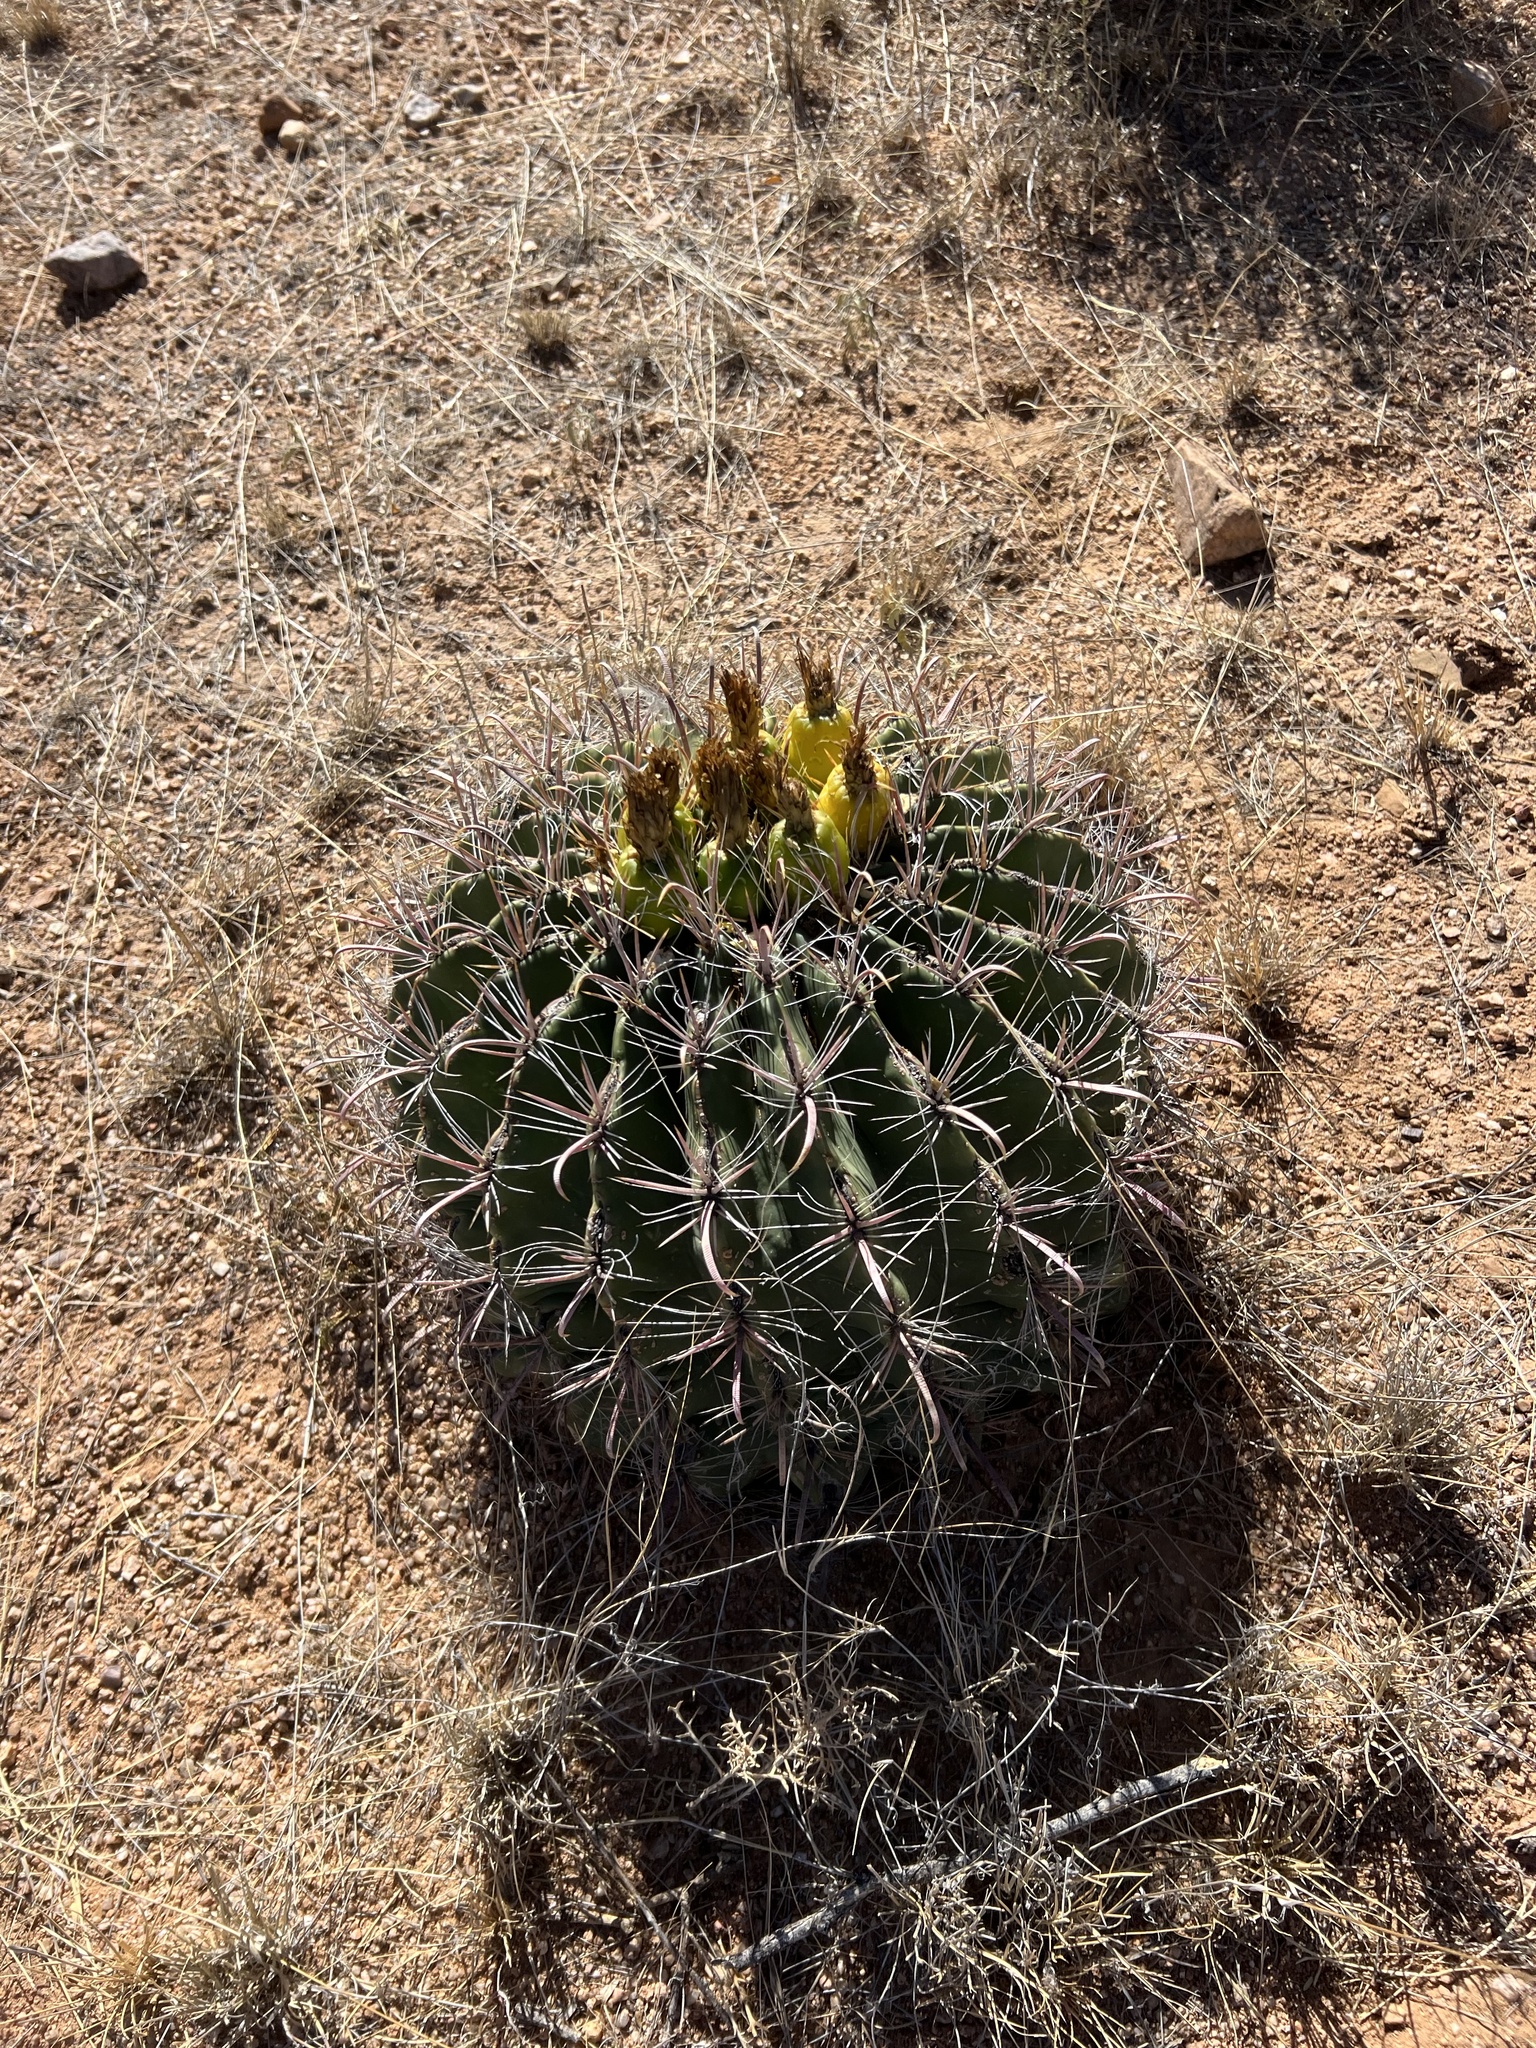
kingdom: Plantae
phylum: Tracheophyta
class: Magnoliopsida
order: Caryophyllales
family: Cactaceae
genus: Ferocactus
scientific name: Ferocactus wislizeni
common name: Candy barrel cactus
